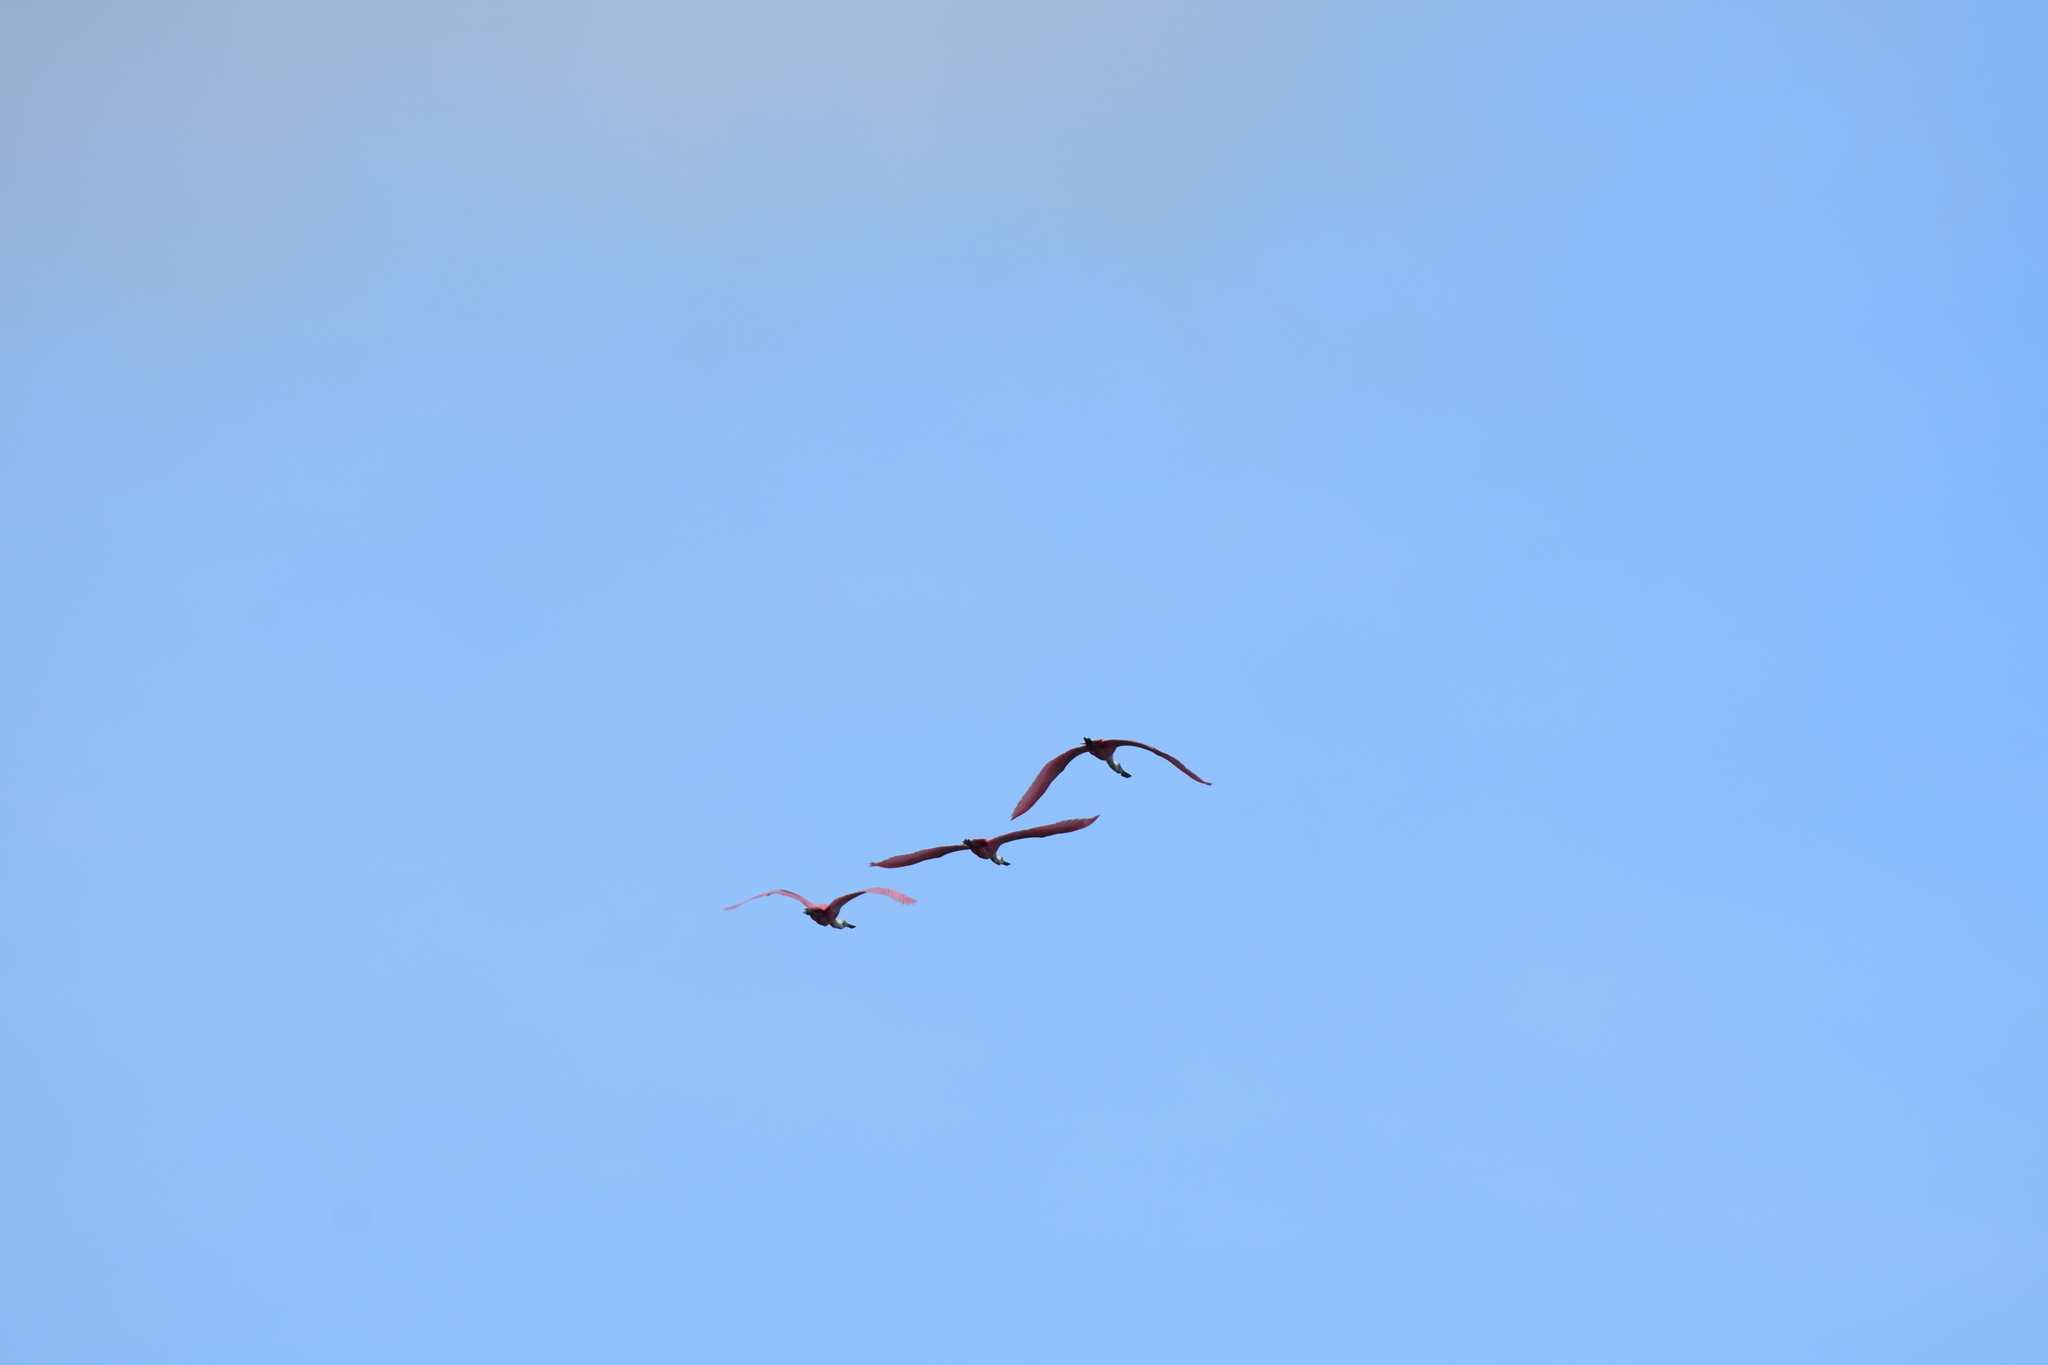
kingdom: Animalia
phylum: Chordata
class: Aves
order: Pelecaniformes
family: Threskiornithidae
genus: Platalea
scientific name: Platalea ajaja
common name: Roseate spoonbill
